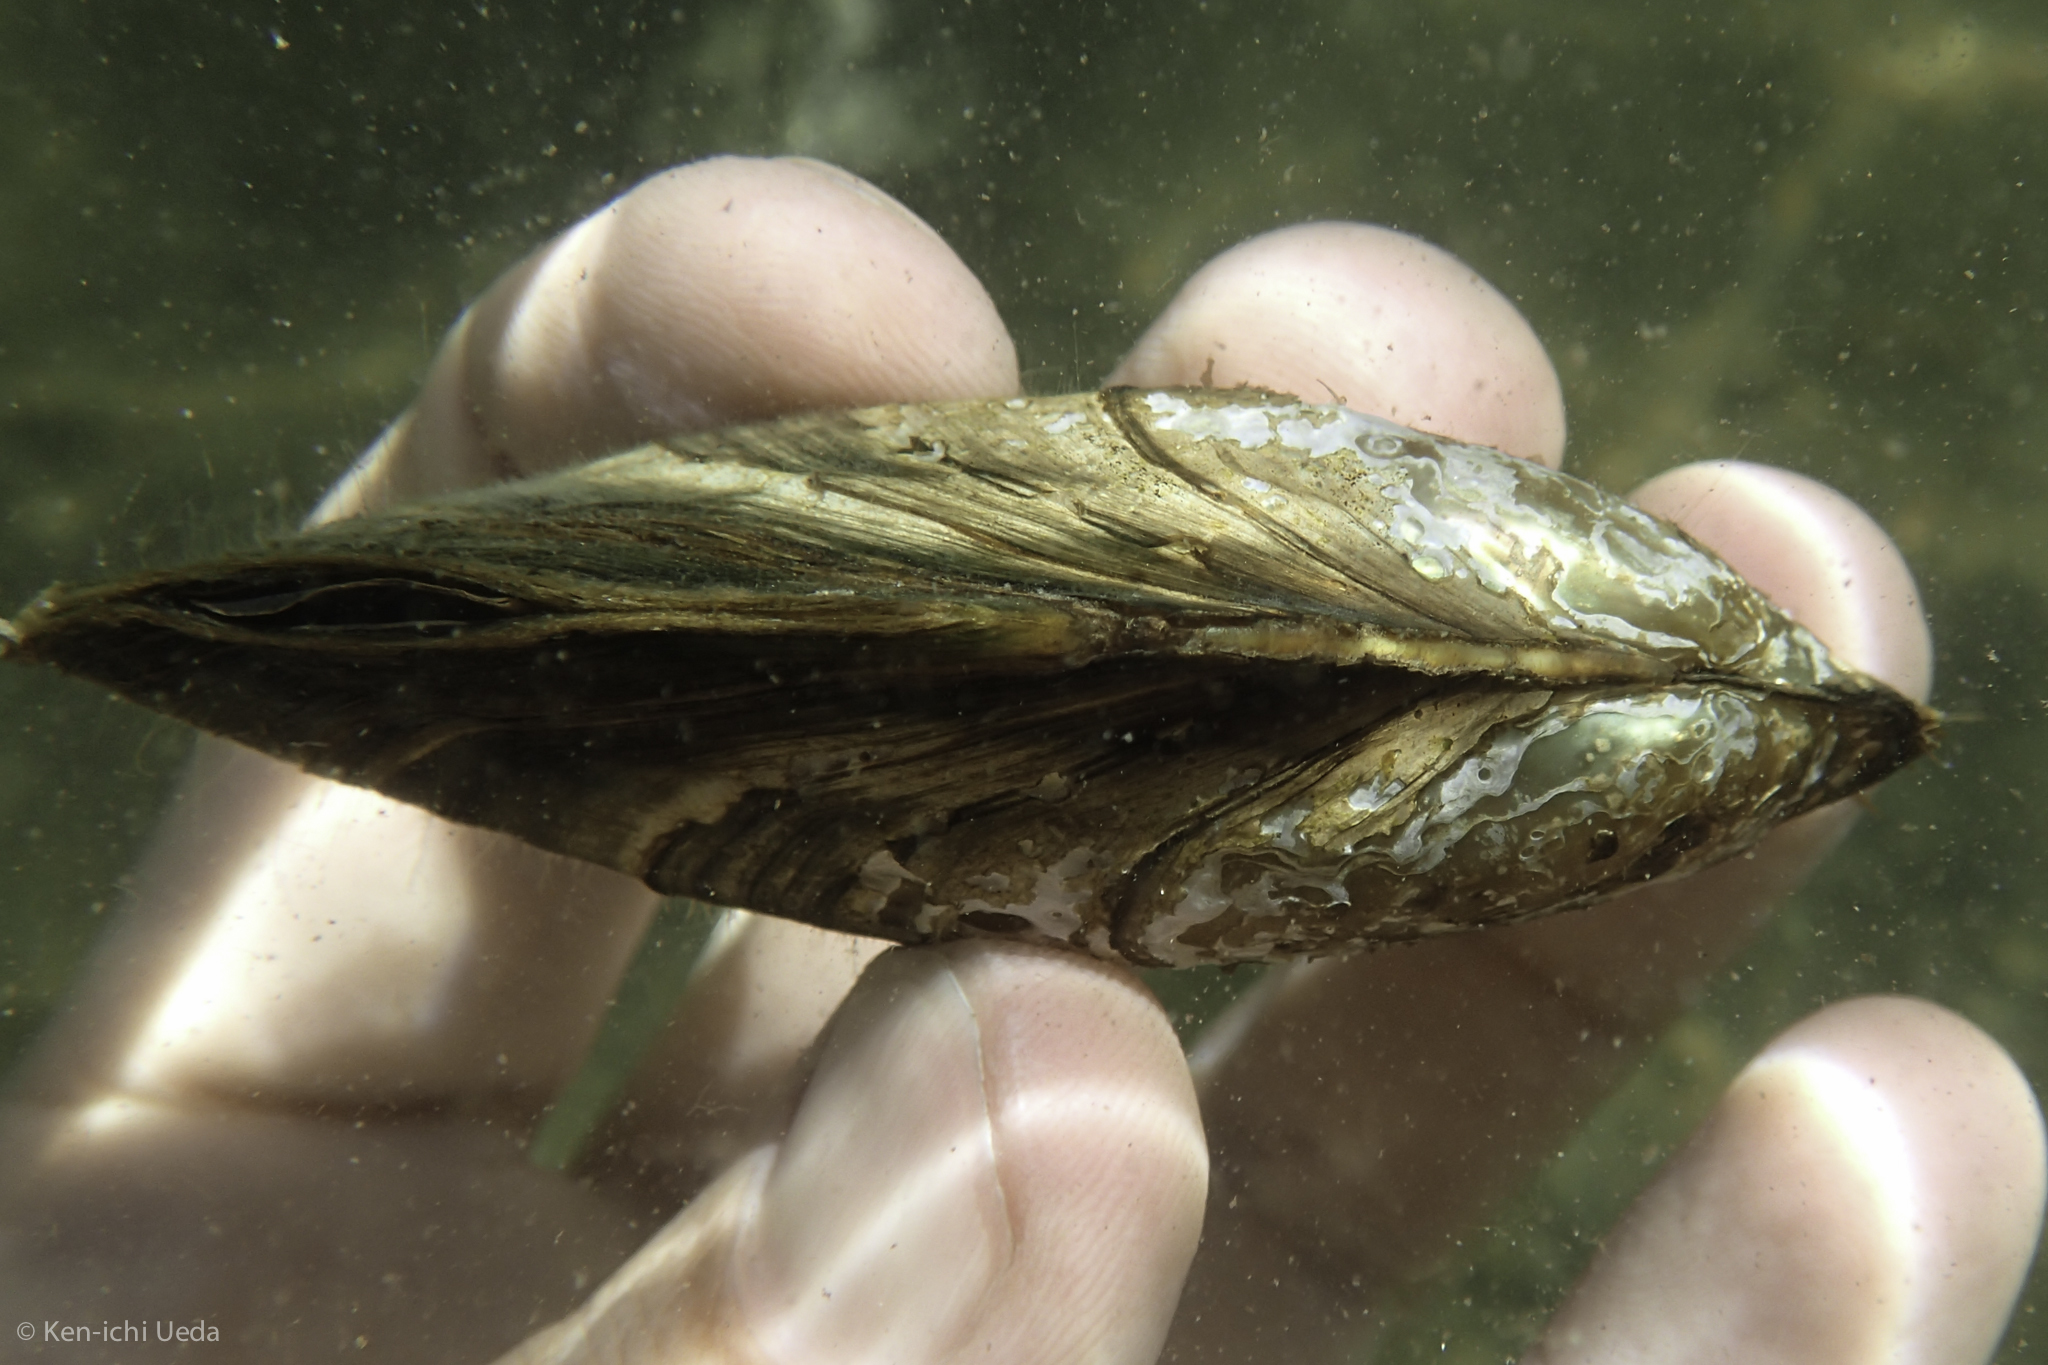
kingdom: Animalia
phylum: Mollusca
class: Bivalvia
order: Unionida
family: Unionidae
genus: Anodonta
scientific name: Anodonta californiensis
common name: California floater
